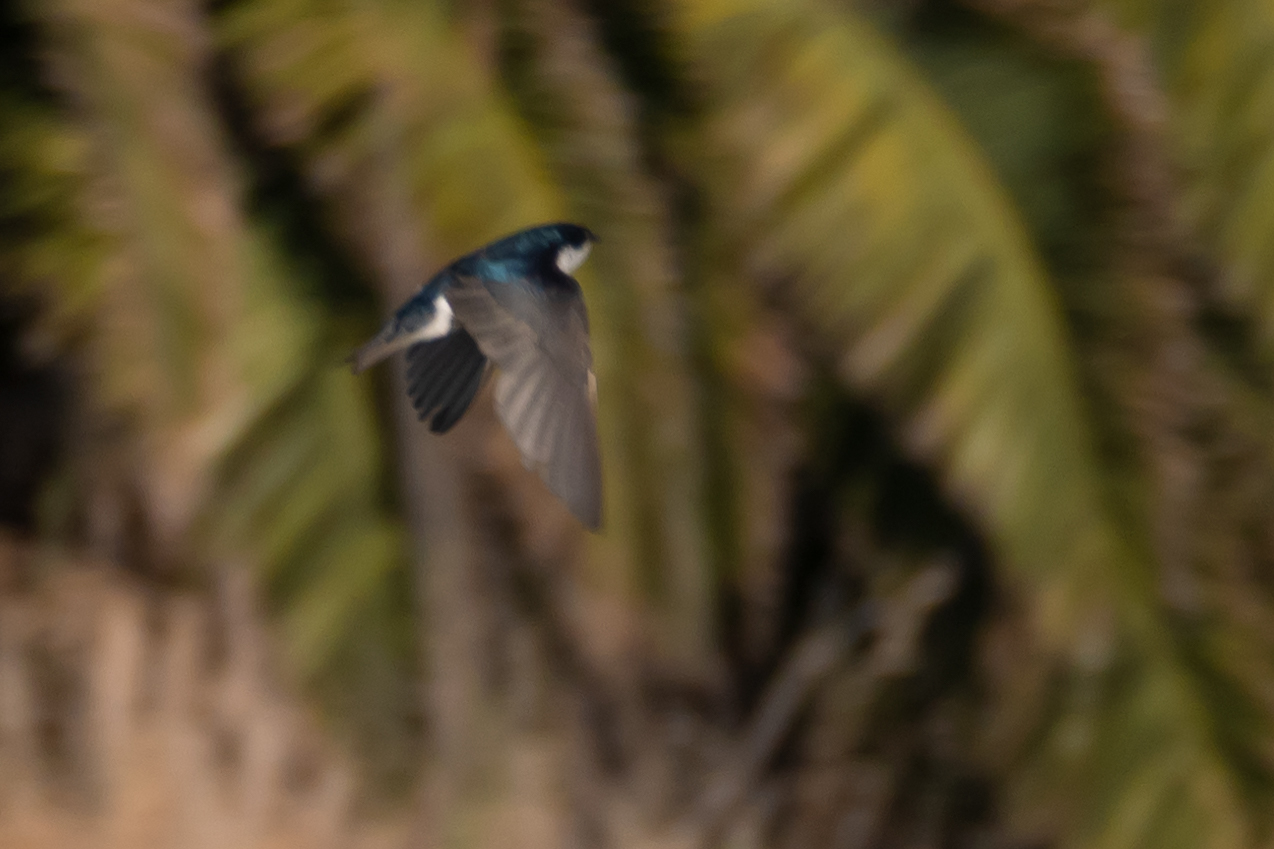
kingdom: Animalia
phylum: Chordata
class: Aves
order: Passeriformes
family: Hirundinidae
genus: Tachycineta
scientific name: Tachycineta bicolor
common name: Tree swallow
